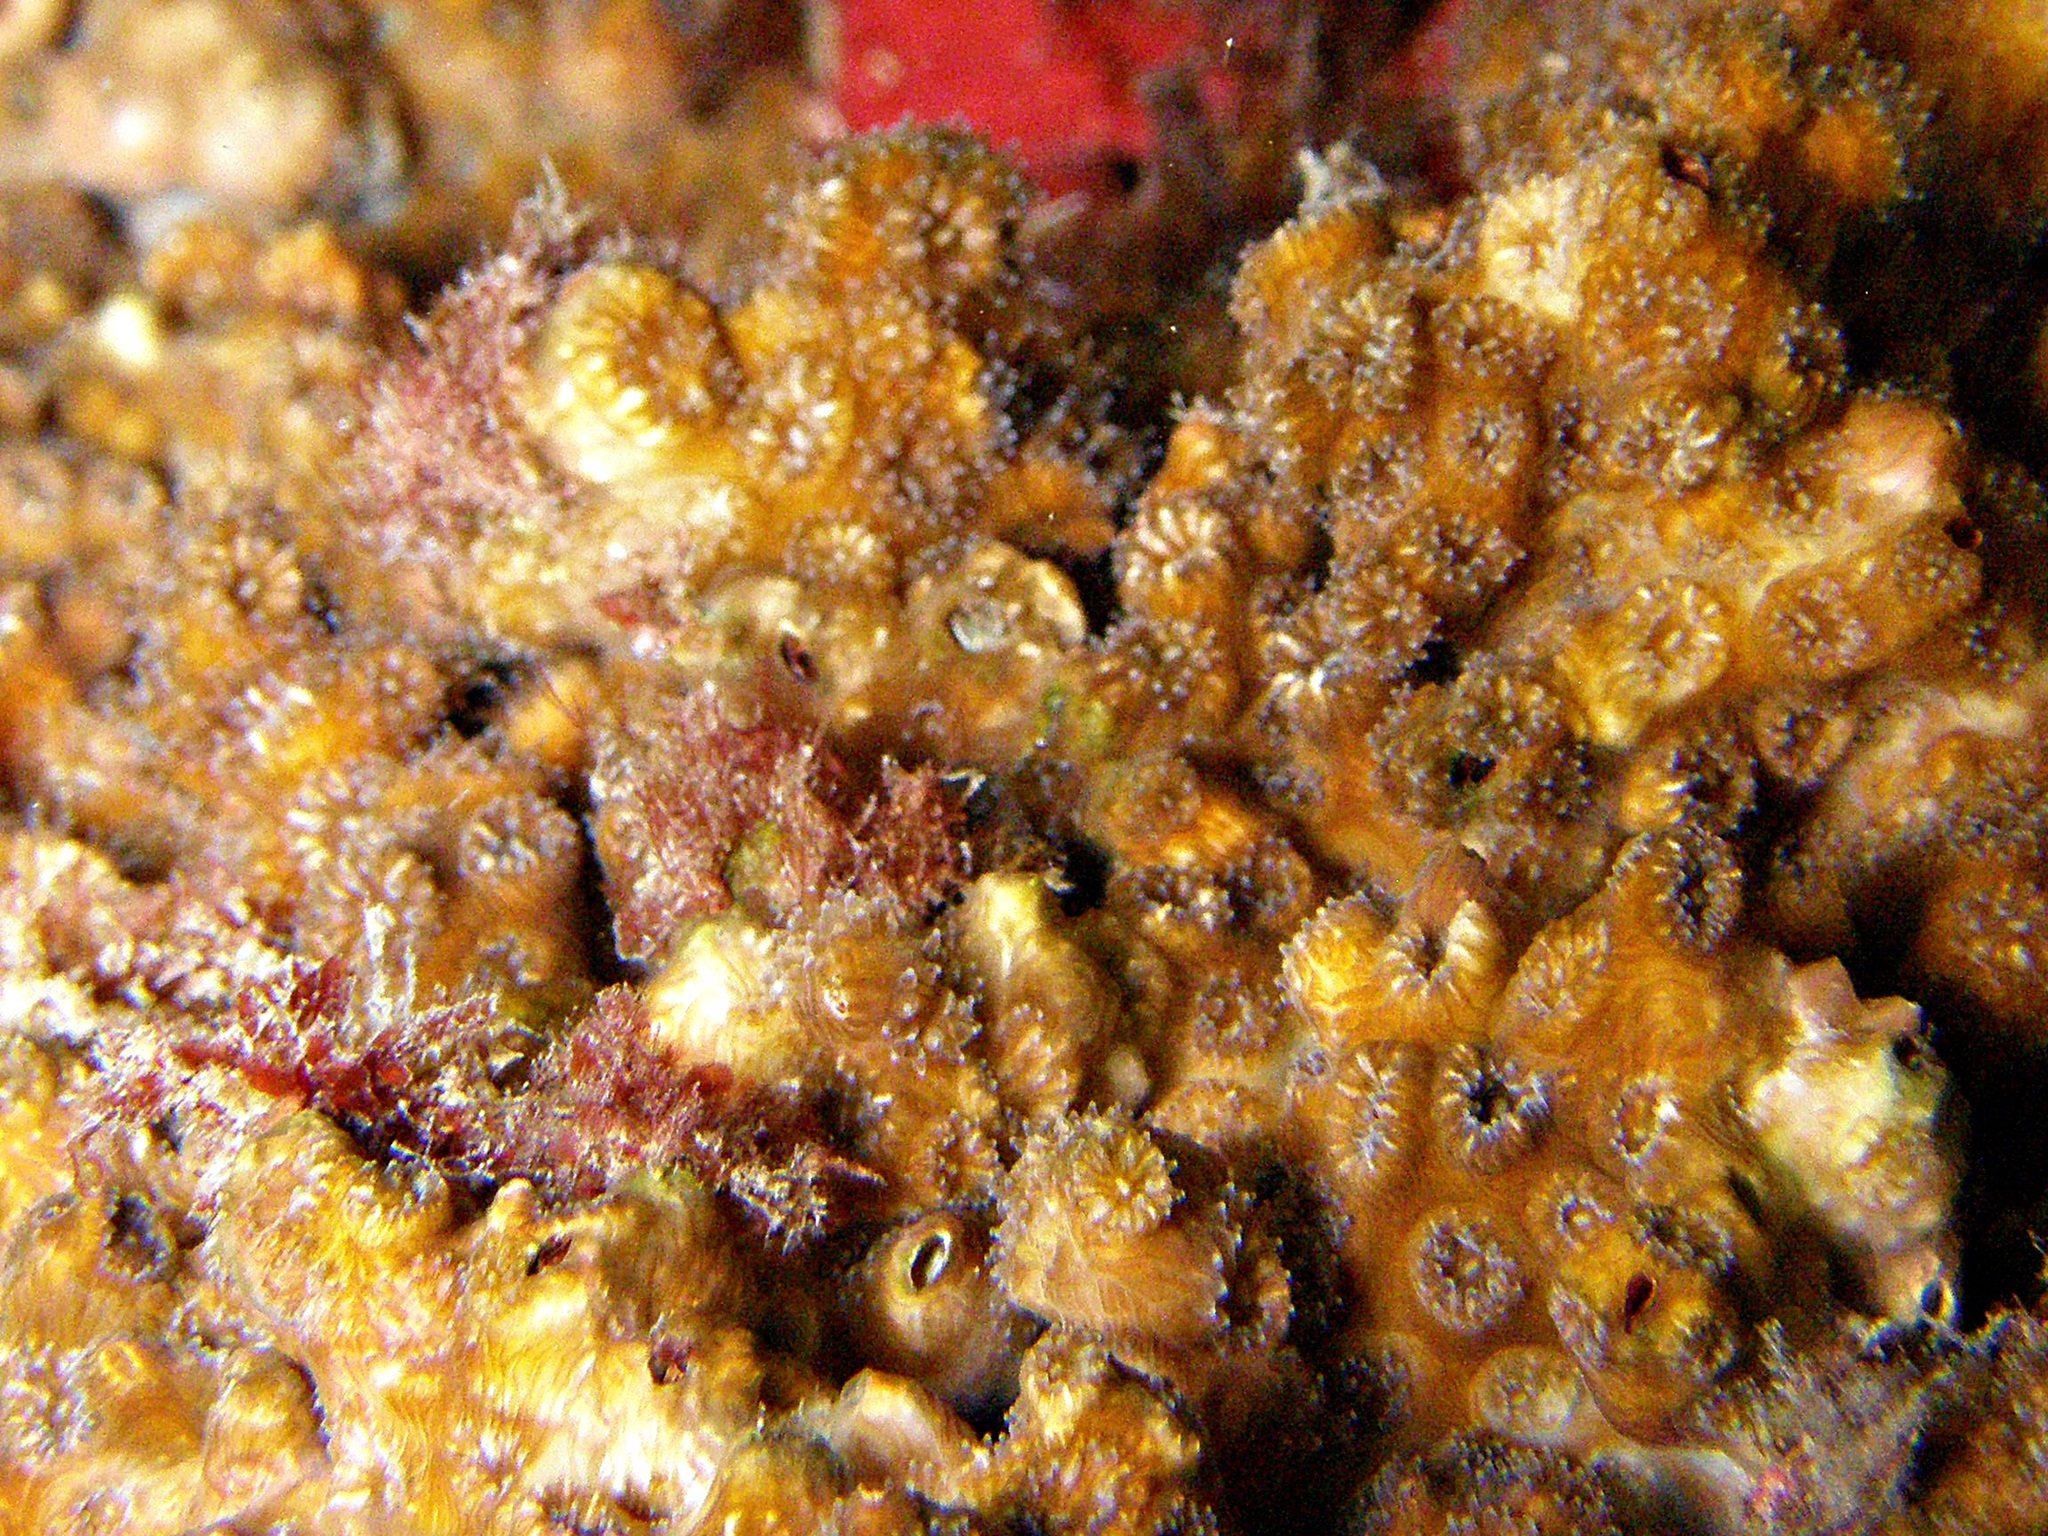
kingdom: Animalia
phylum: Cnidaria
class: Anthozoa
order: Scleractinia
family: Oculinidae
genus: Oculina
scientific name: Oculina patagonica
